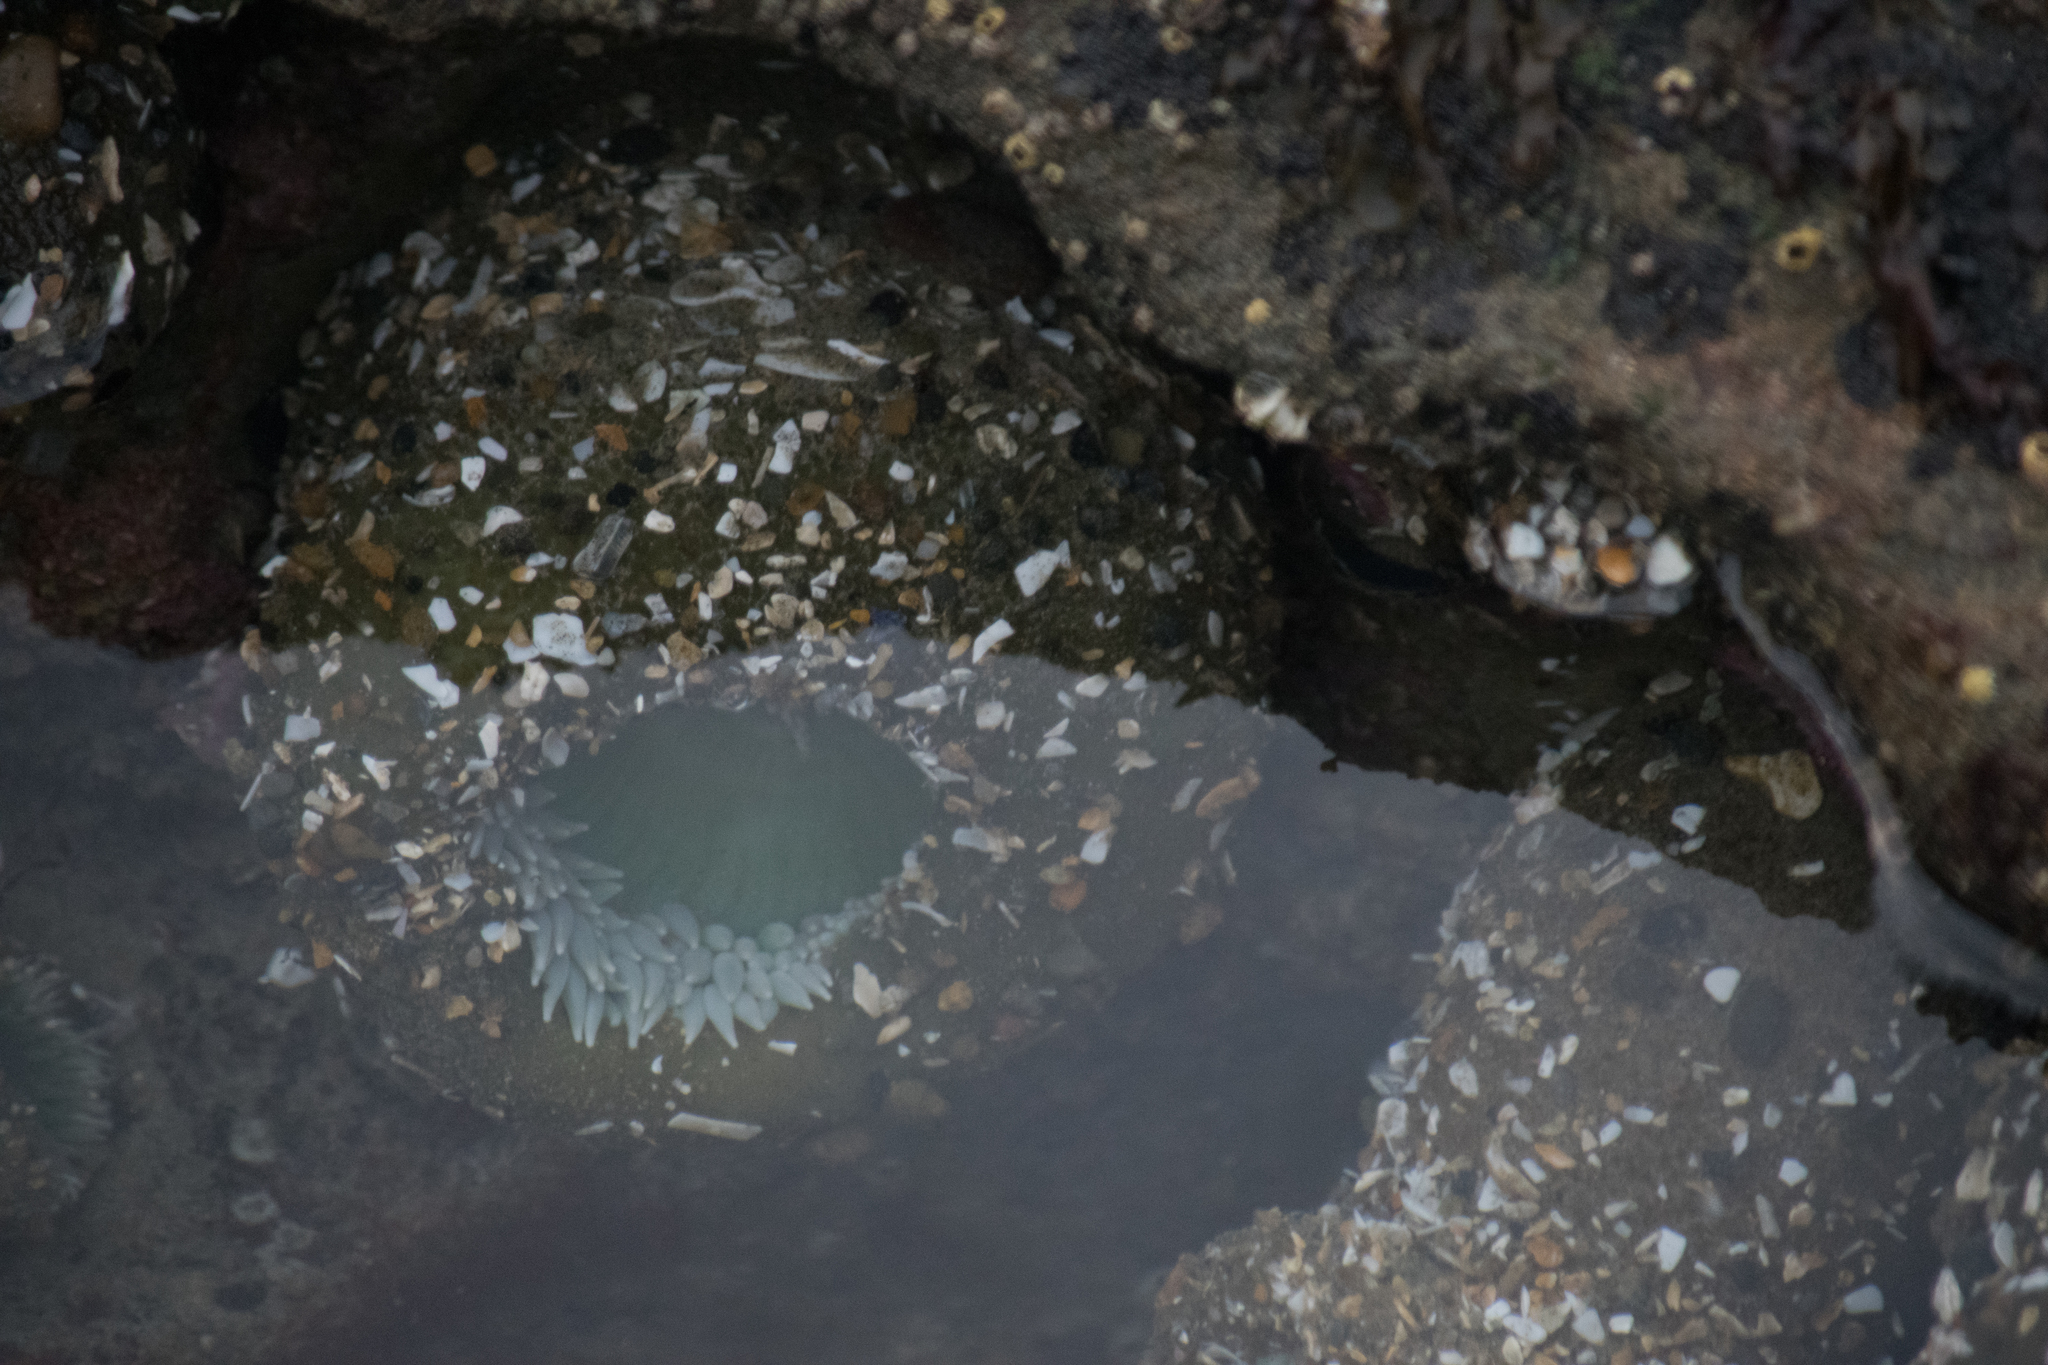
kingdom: Animalia
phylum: Cnidaria
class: Anthozoa
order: Actiniaria
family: Actiniidae
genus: Anthopleura
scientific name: Anthopleura xanthogrammica
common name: Giant green anemone
